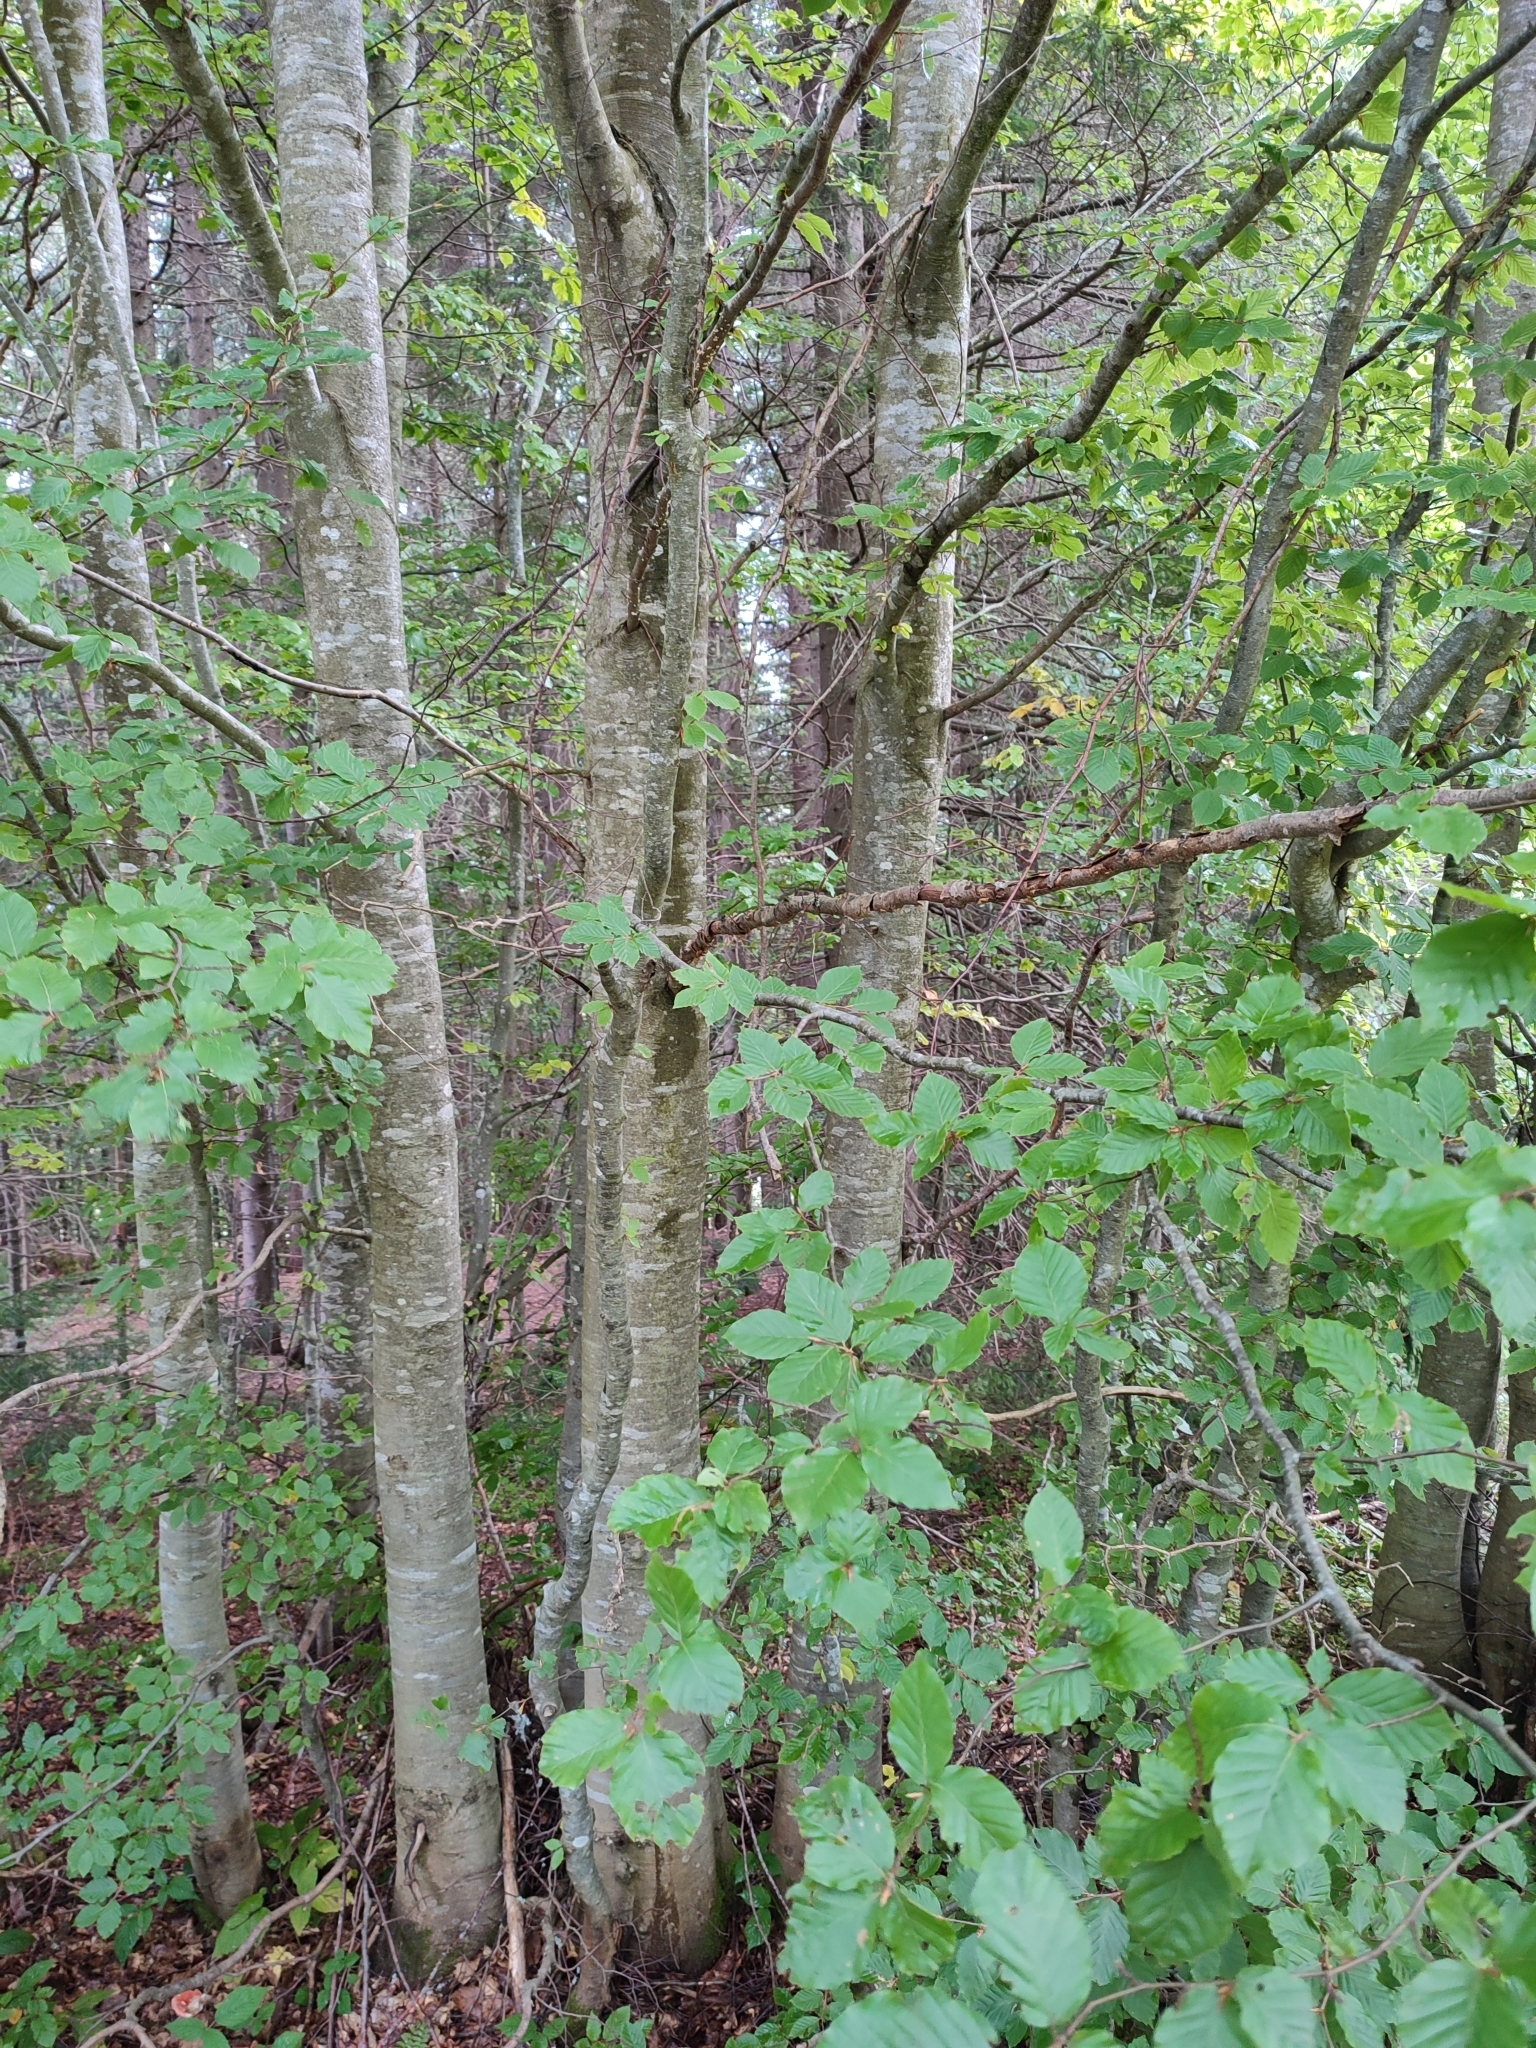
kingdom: Plantae
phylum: Tracheophyta
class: Magnoliopsida
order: Fagales
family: Fagaceae
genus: Fagus
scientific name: Fagus sylvatica
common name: Beech
